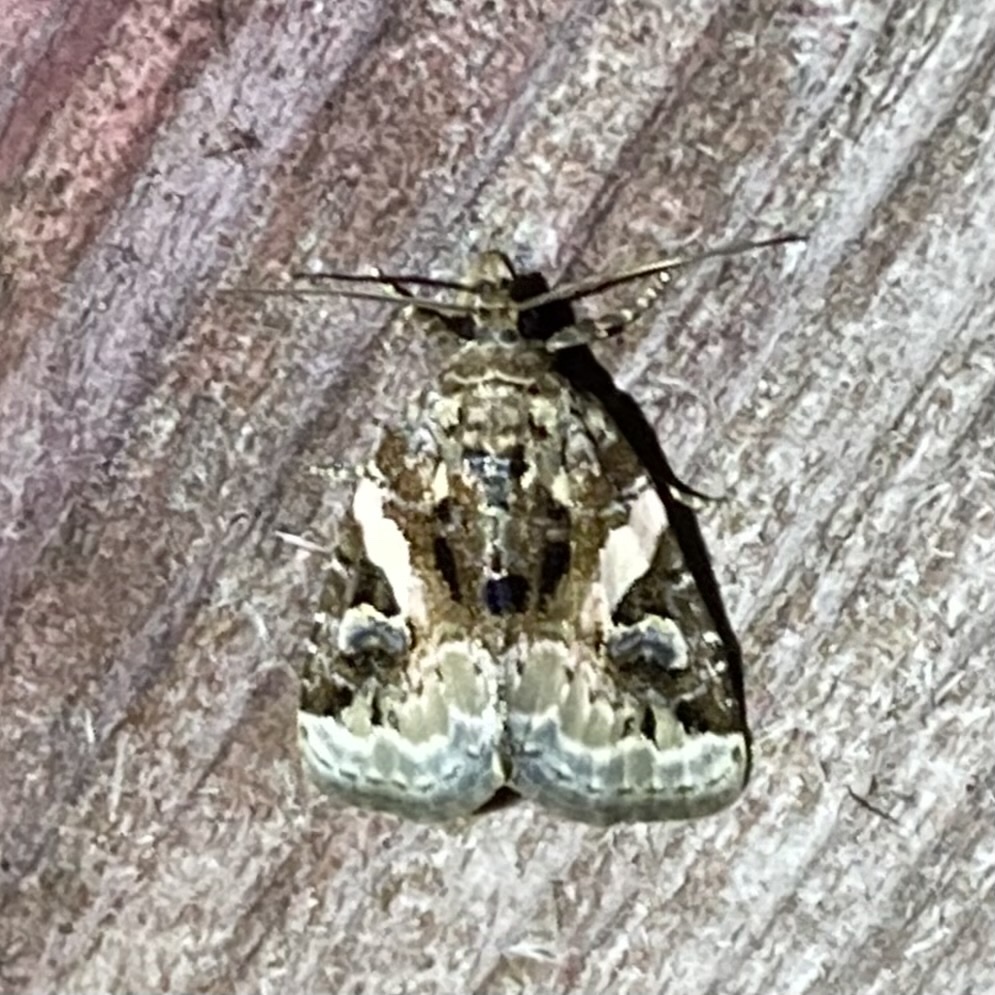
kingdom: Animalia
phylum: Arthropoda
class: Insecta
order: Lepidoptera
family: Noctuidae
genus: Pseudeustrotia
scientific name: Pseudeustrotia carneola
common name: Pink-barred lithacodia moth
